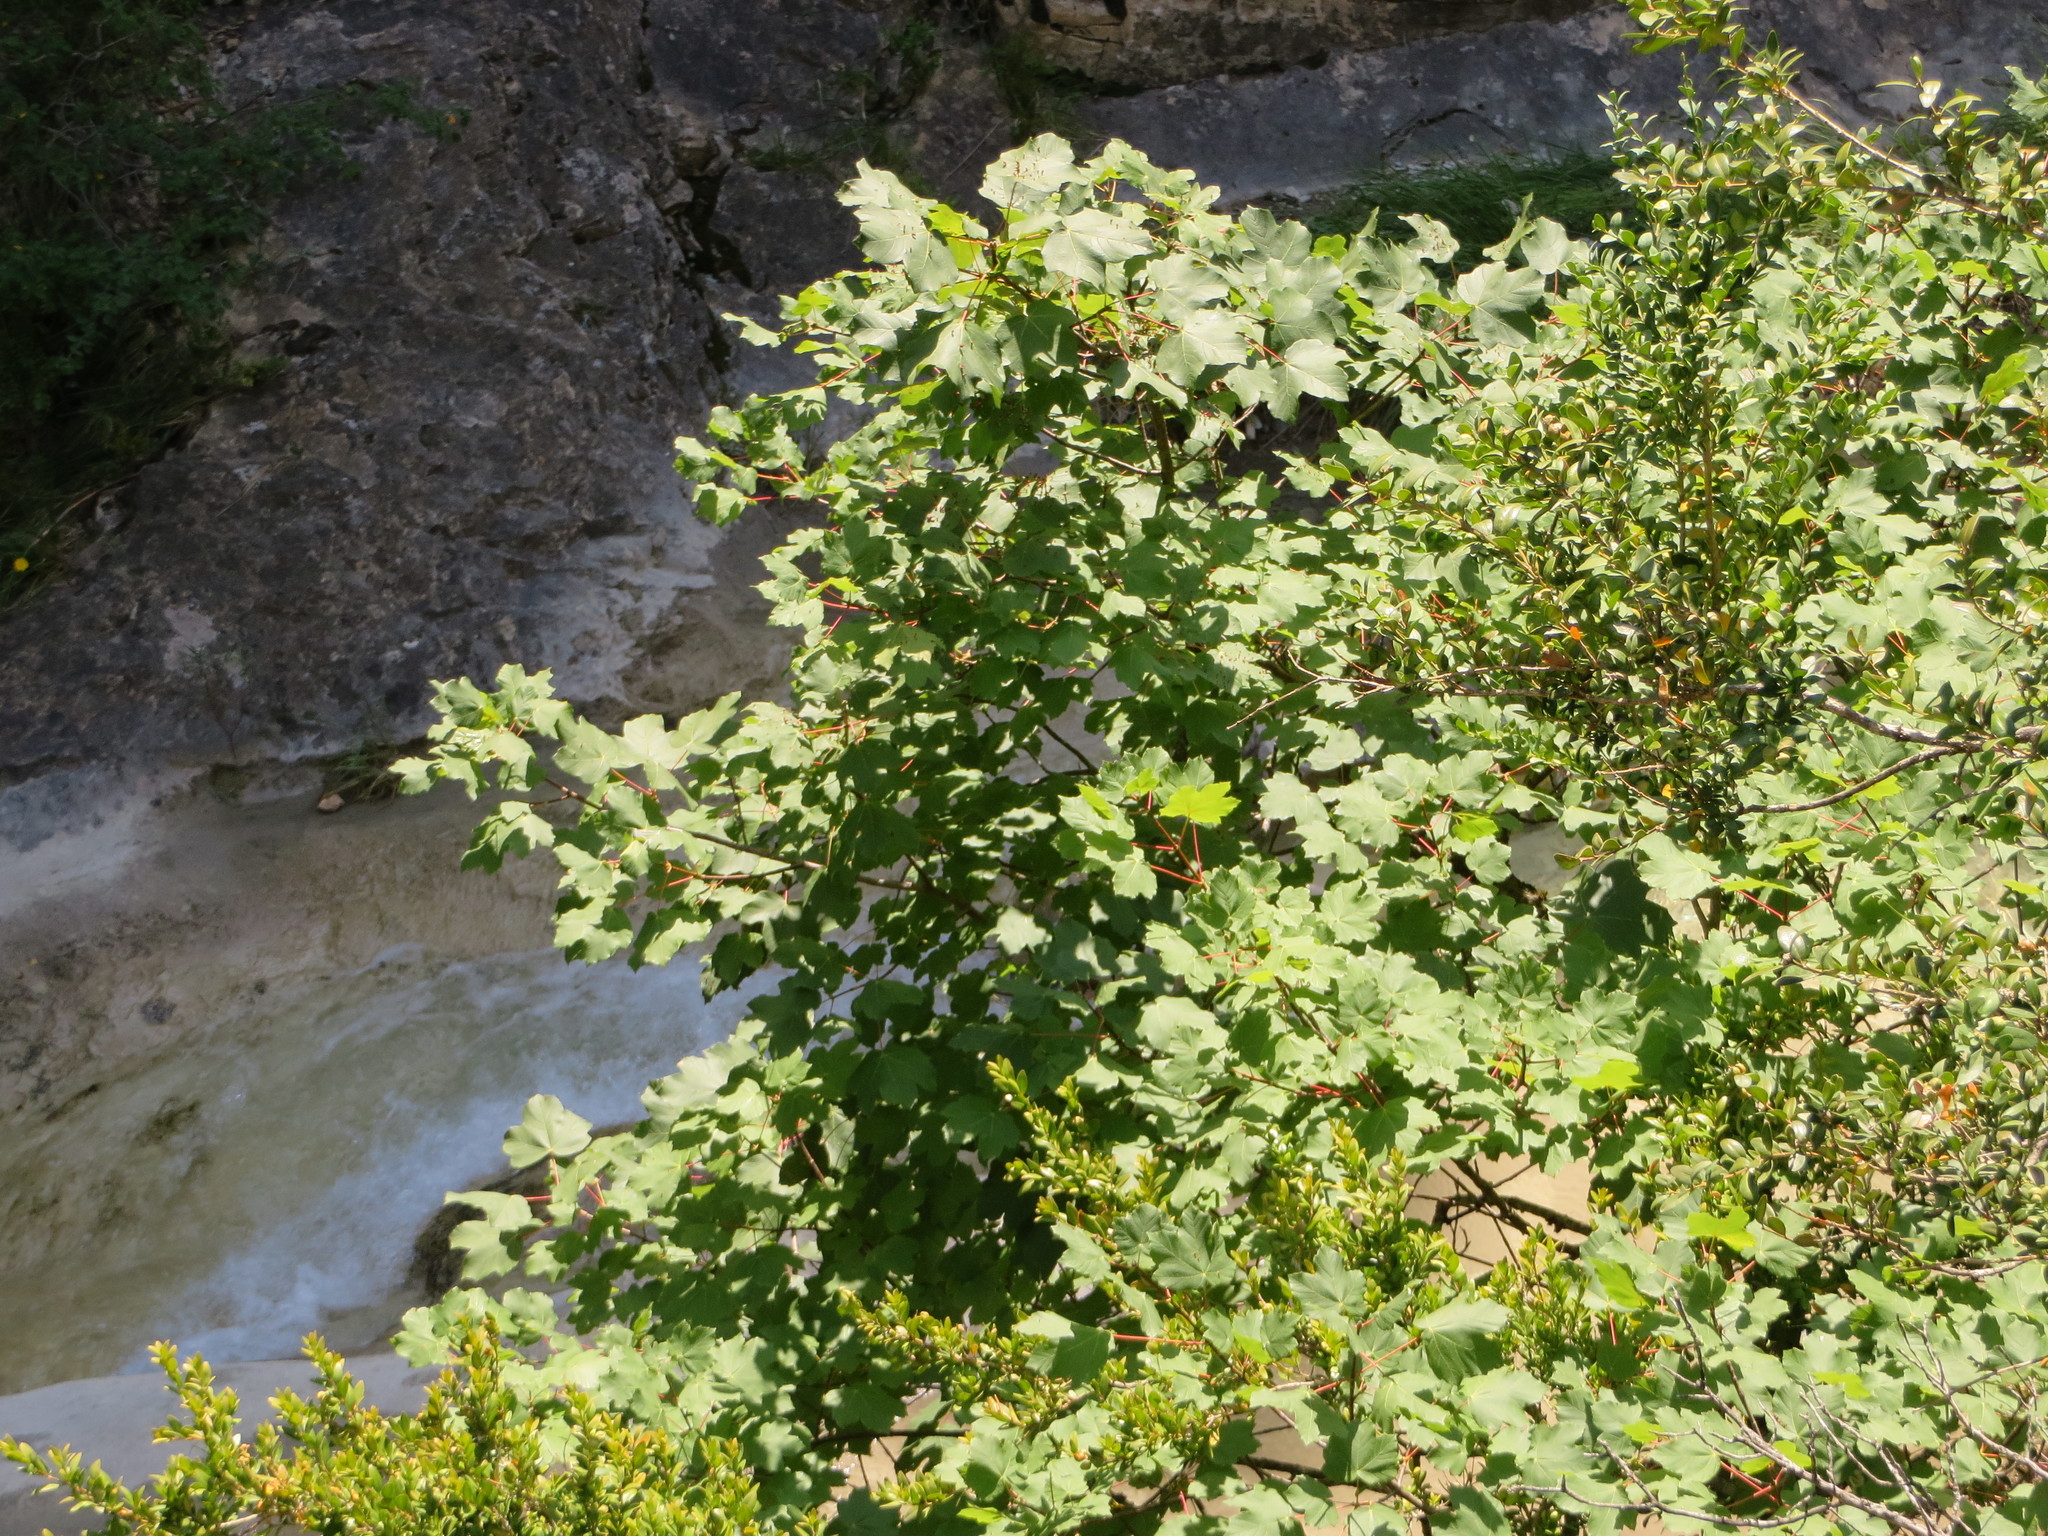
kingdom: Plantae
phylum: Tracheophyta
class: Magnoliopsida
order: Sapindales
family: Sapindaceae
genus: Acer
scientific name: Acer opalus
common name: Italian maple
